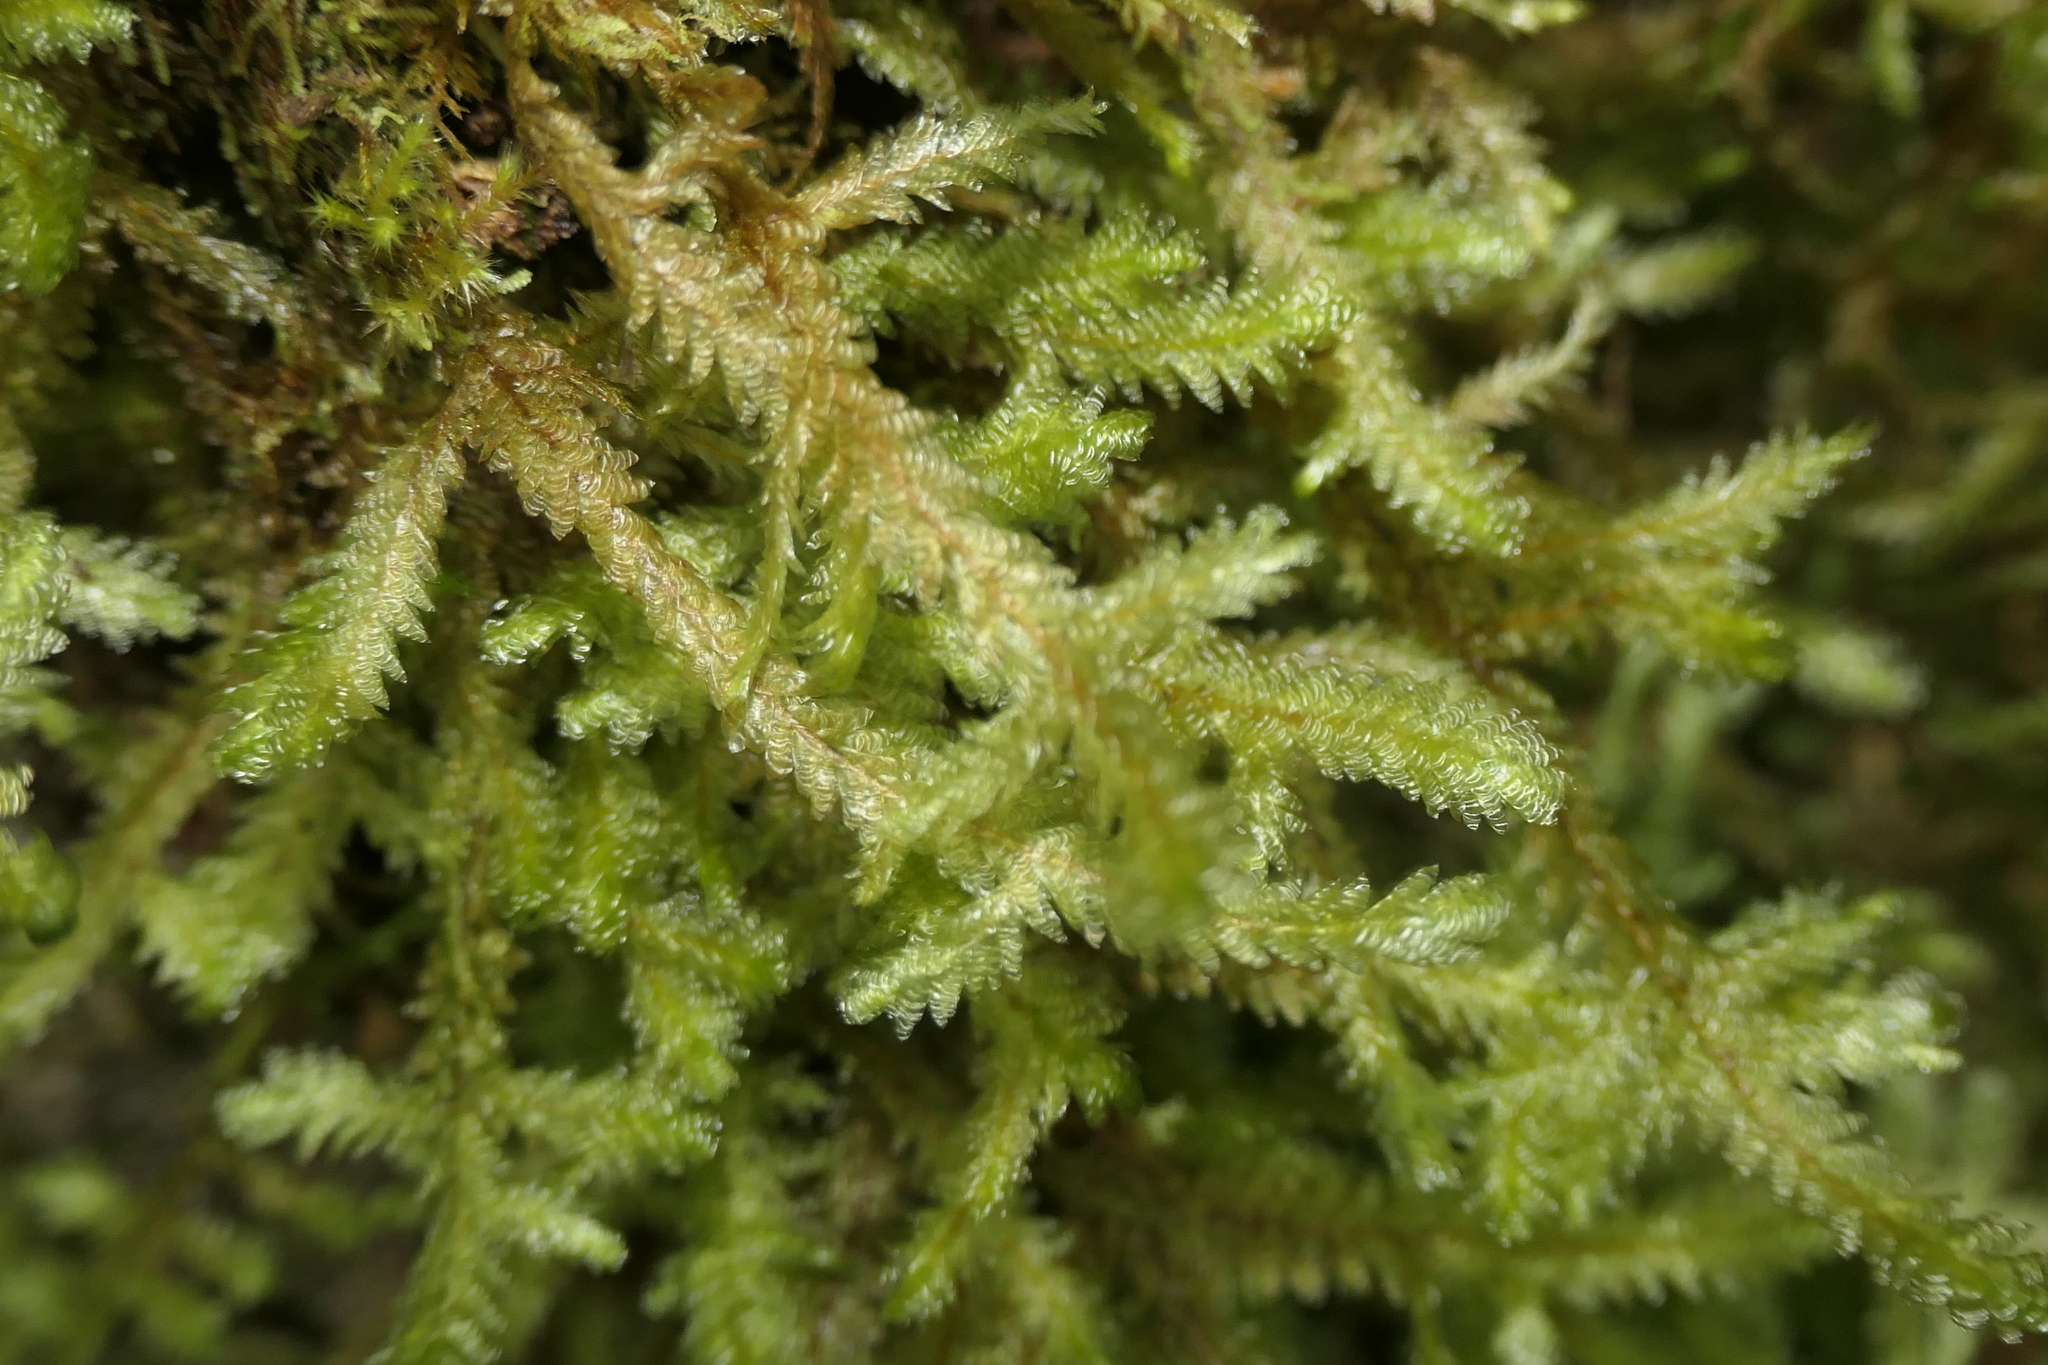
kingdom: Plantae
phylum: Bryophyta
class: Bryopsida
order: Hypnales
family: Neckeraceae
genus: Exsertotheca
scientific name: Exsertotheca crispa
